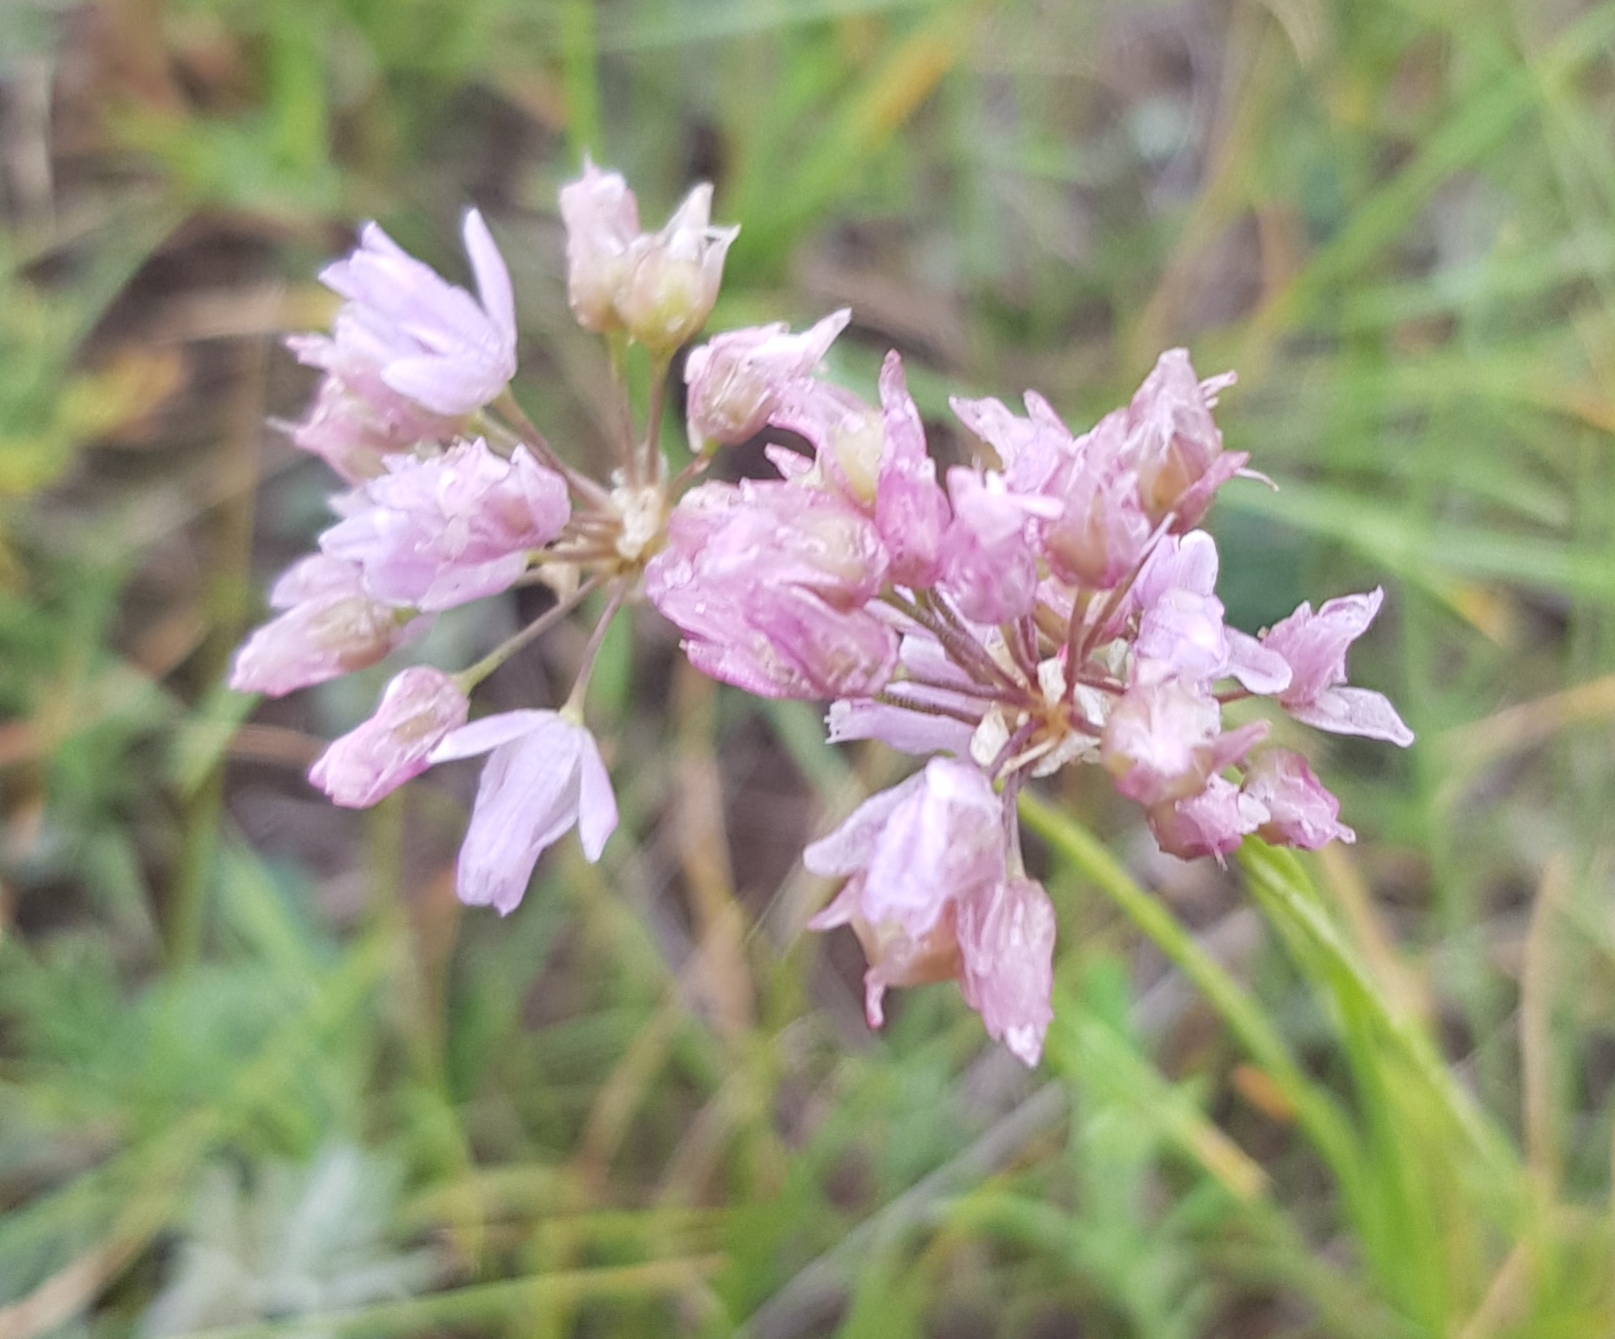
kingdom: Plantae
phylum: Tracheophyta
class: Liliopsida
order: Asparagales
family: Amaryllidaceae
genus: Allium
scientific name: Allium senescens
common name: German garlic
